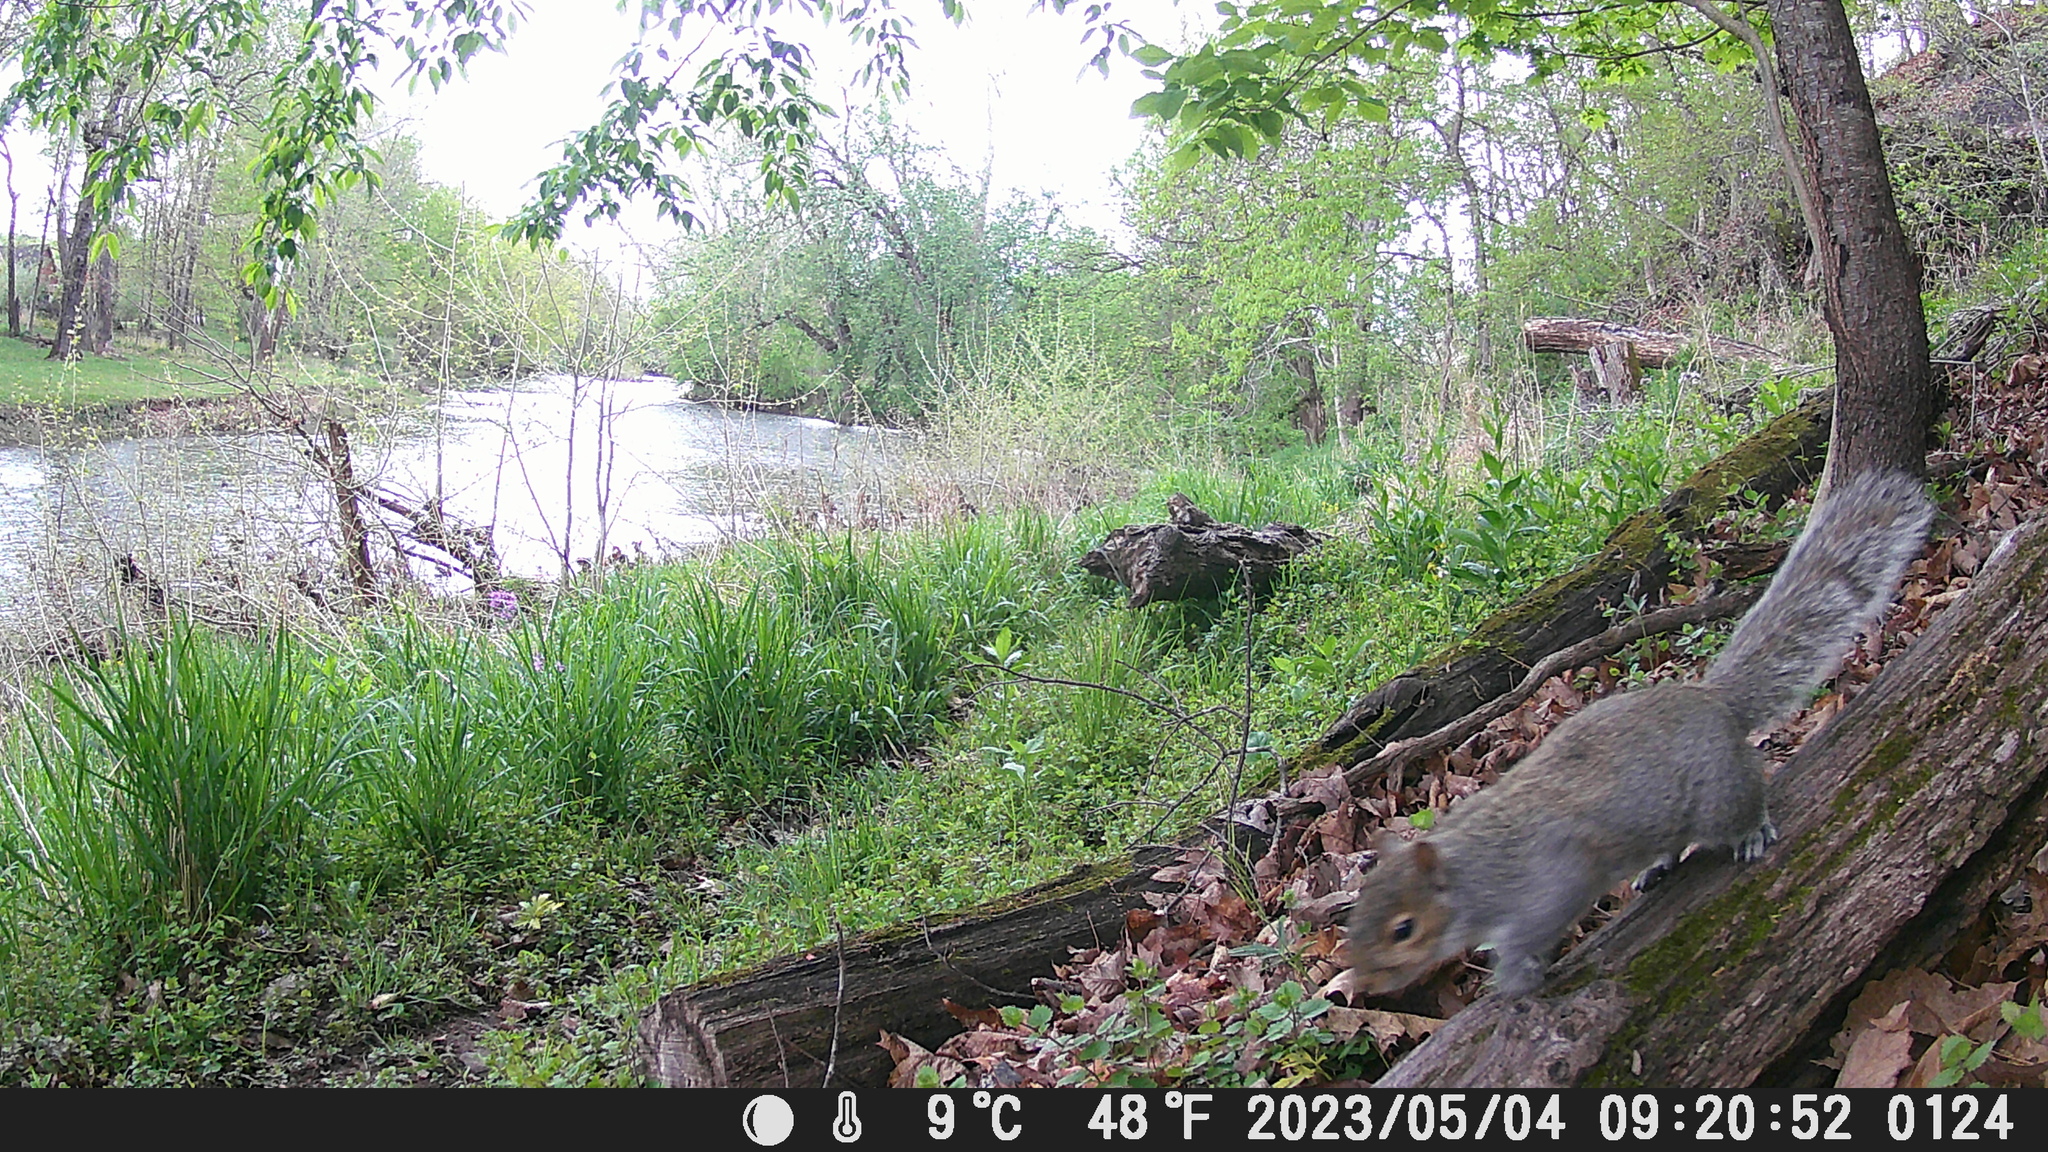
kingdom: Animalia
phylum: Chordata
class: Mammalia
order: Rodentia
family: Sciuridae
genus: Sciurus
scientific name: Sciurus carolinensis
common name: Eastern gray squirrel
